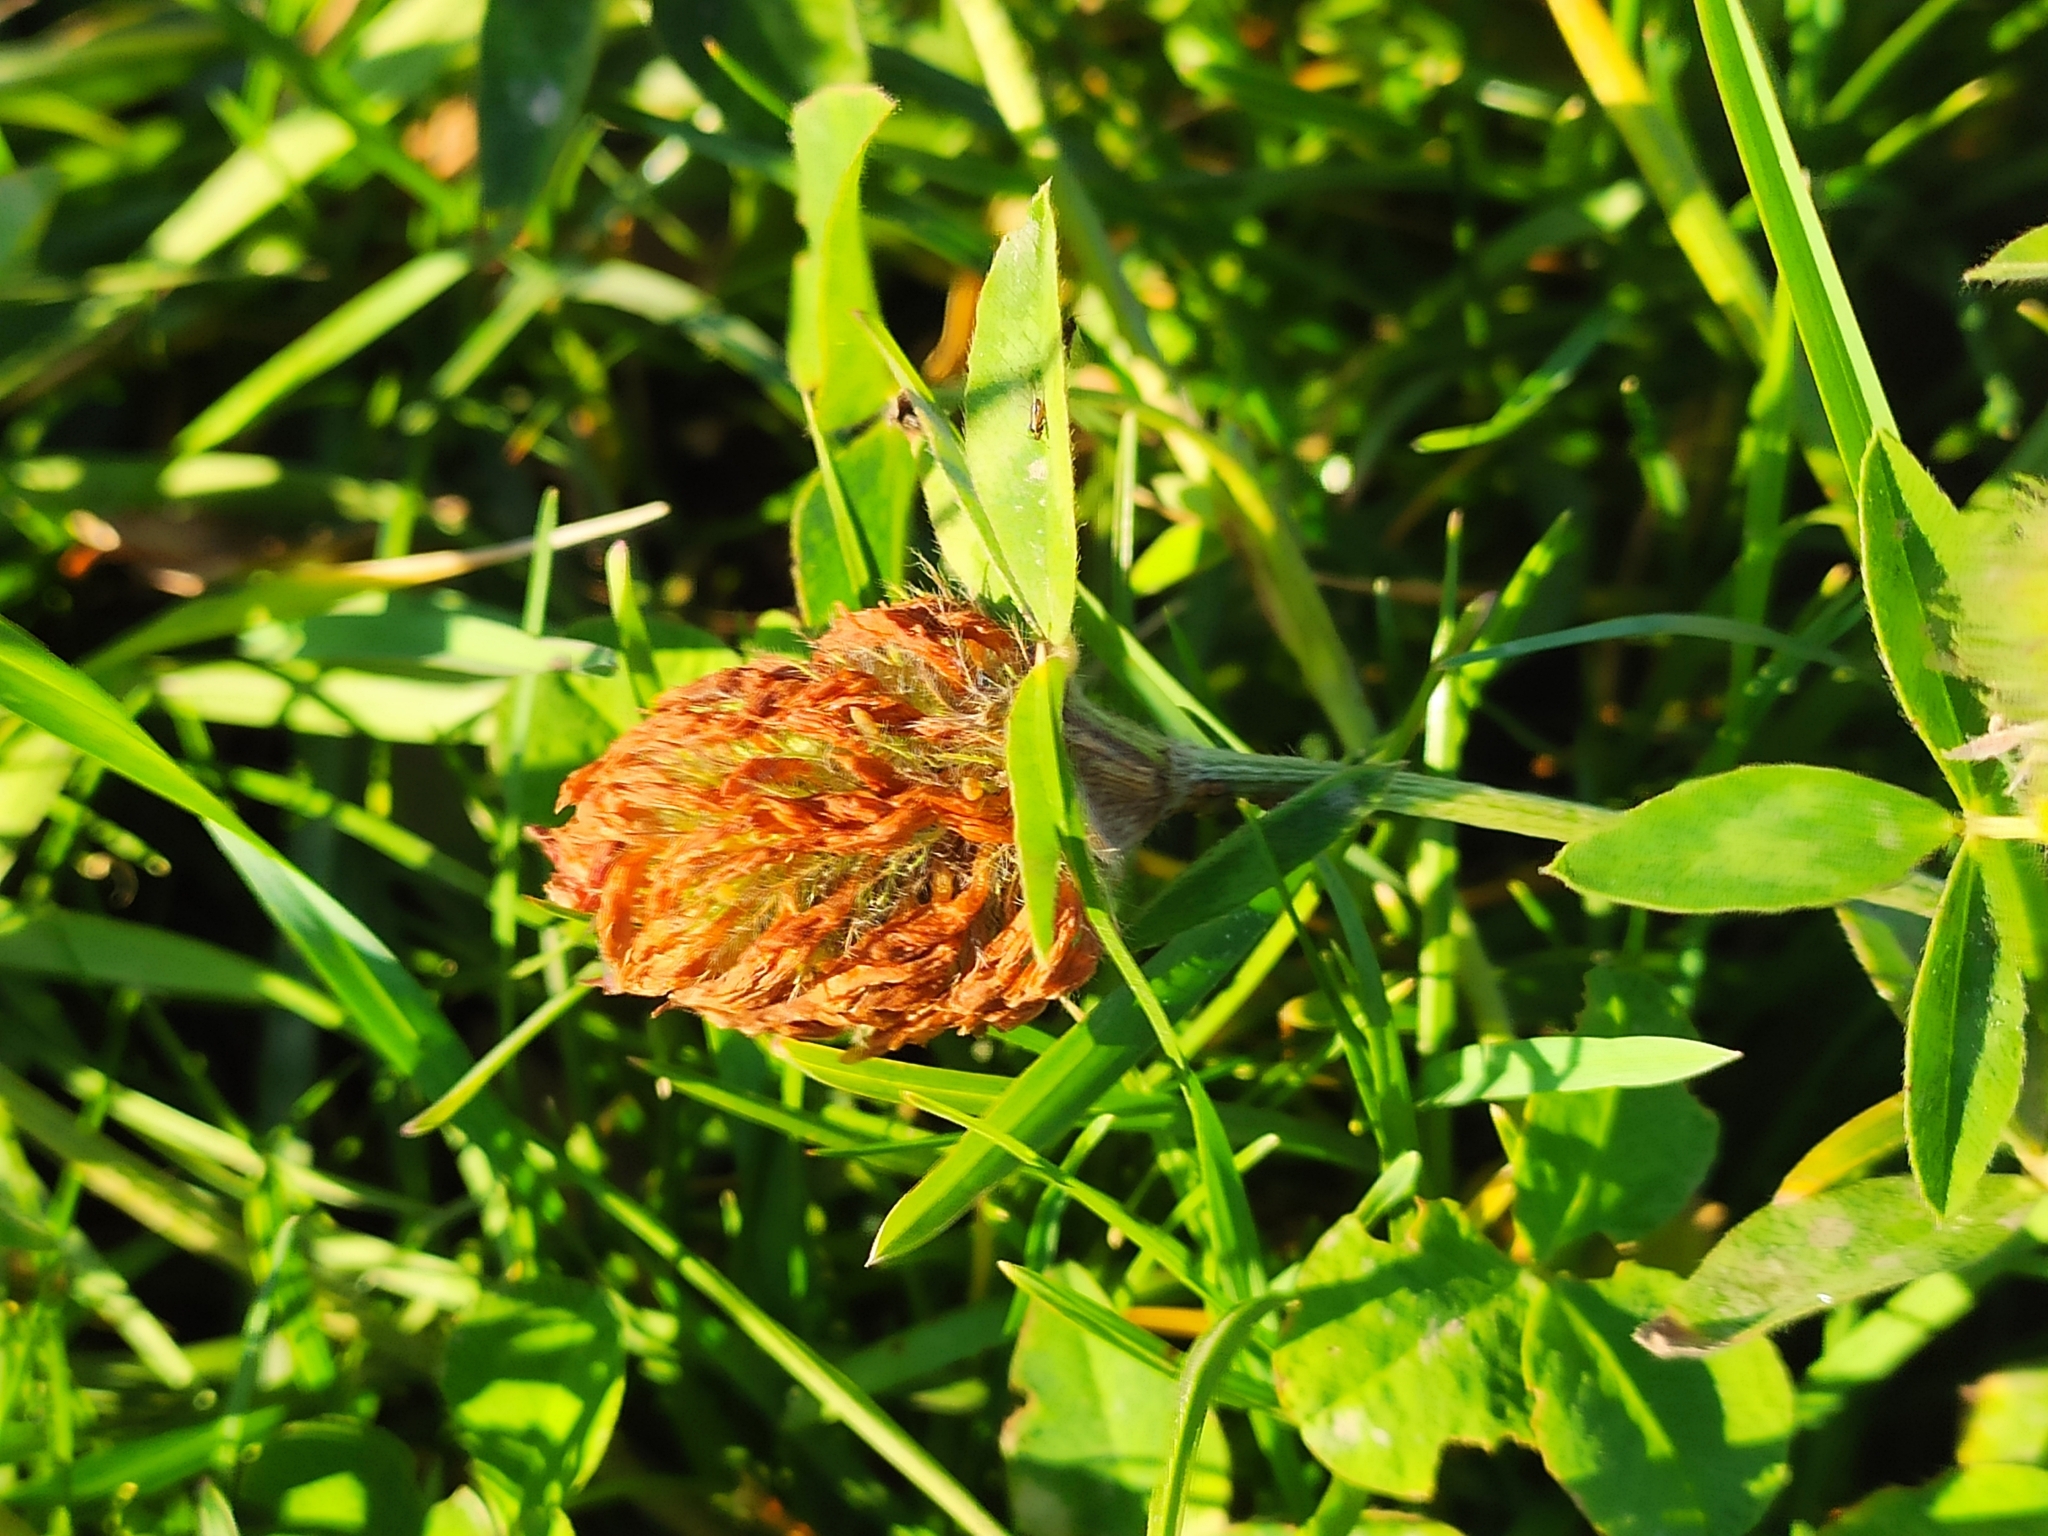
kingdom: Plantae
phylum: Tracheophyta
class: Magnoliopsida
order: Fabales
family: Fabaceae
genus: Trifolium
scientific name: Trifolium pratense
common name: Red clover
